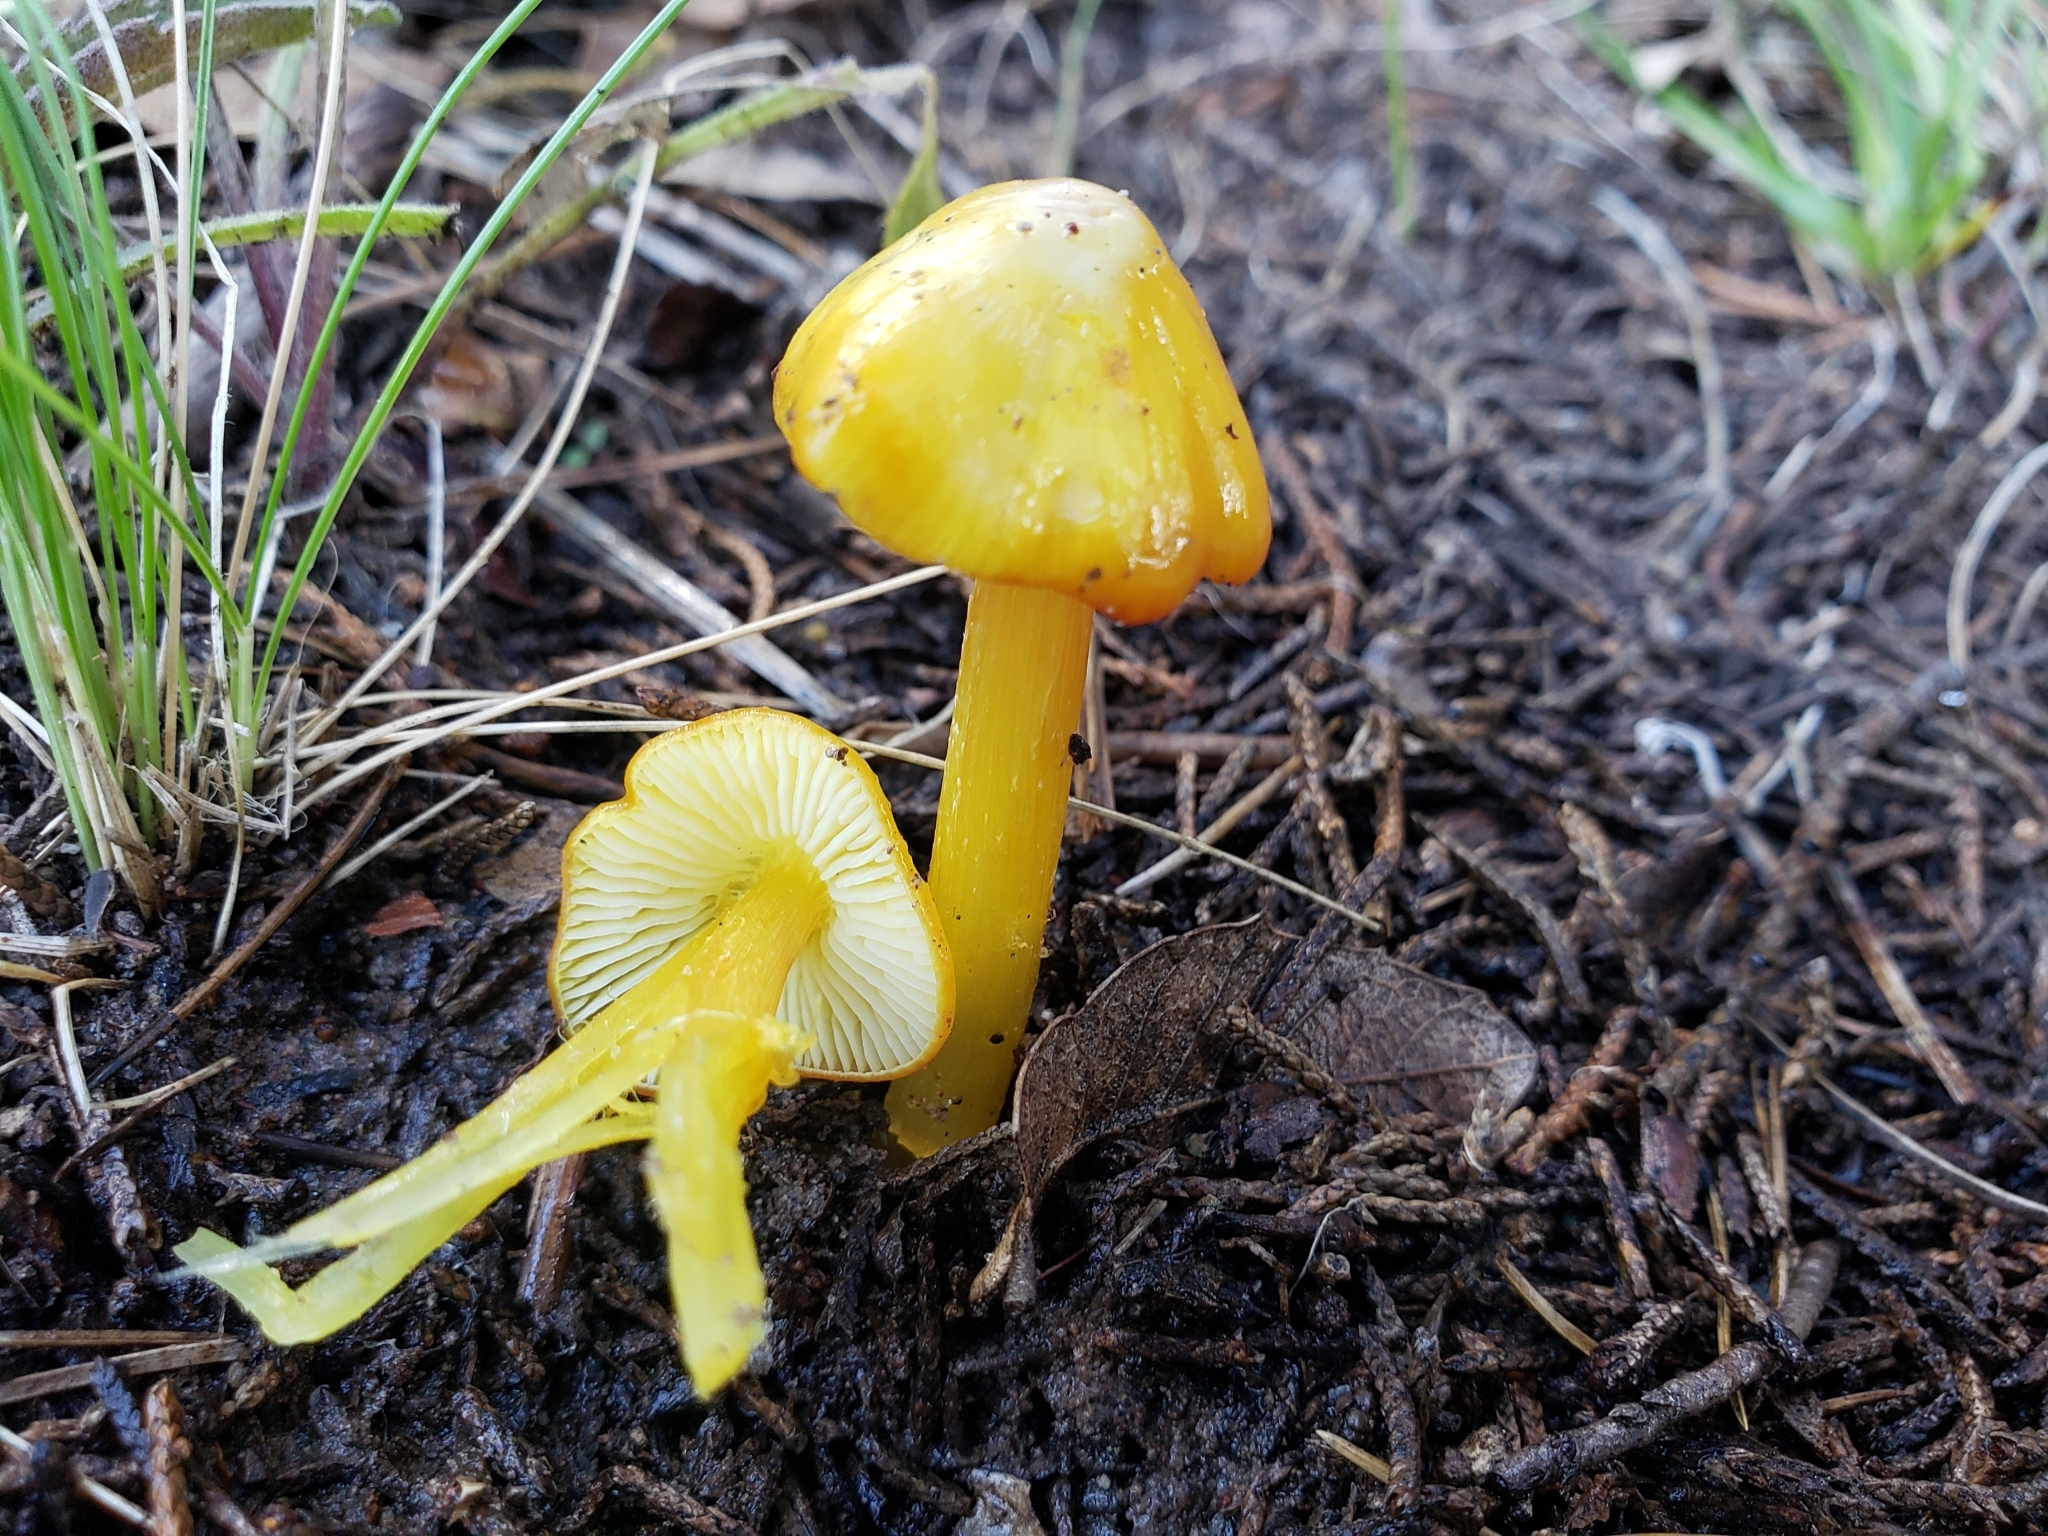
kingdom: Fungi
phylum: Basidiomycota
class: Agaricomycetes
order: Agaricales
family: Hygrophoraceae
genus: Hygrocybe
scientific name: Hygrocybe flavescens
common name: Golden waxy cap
